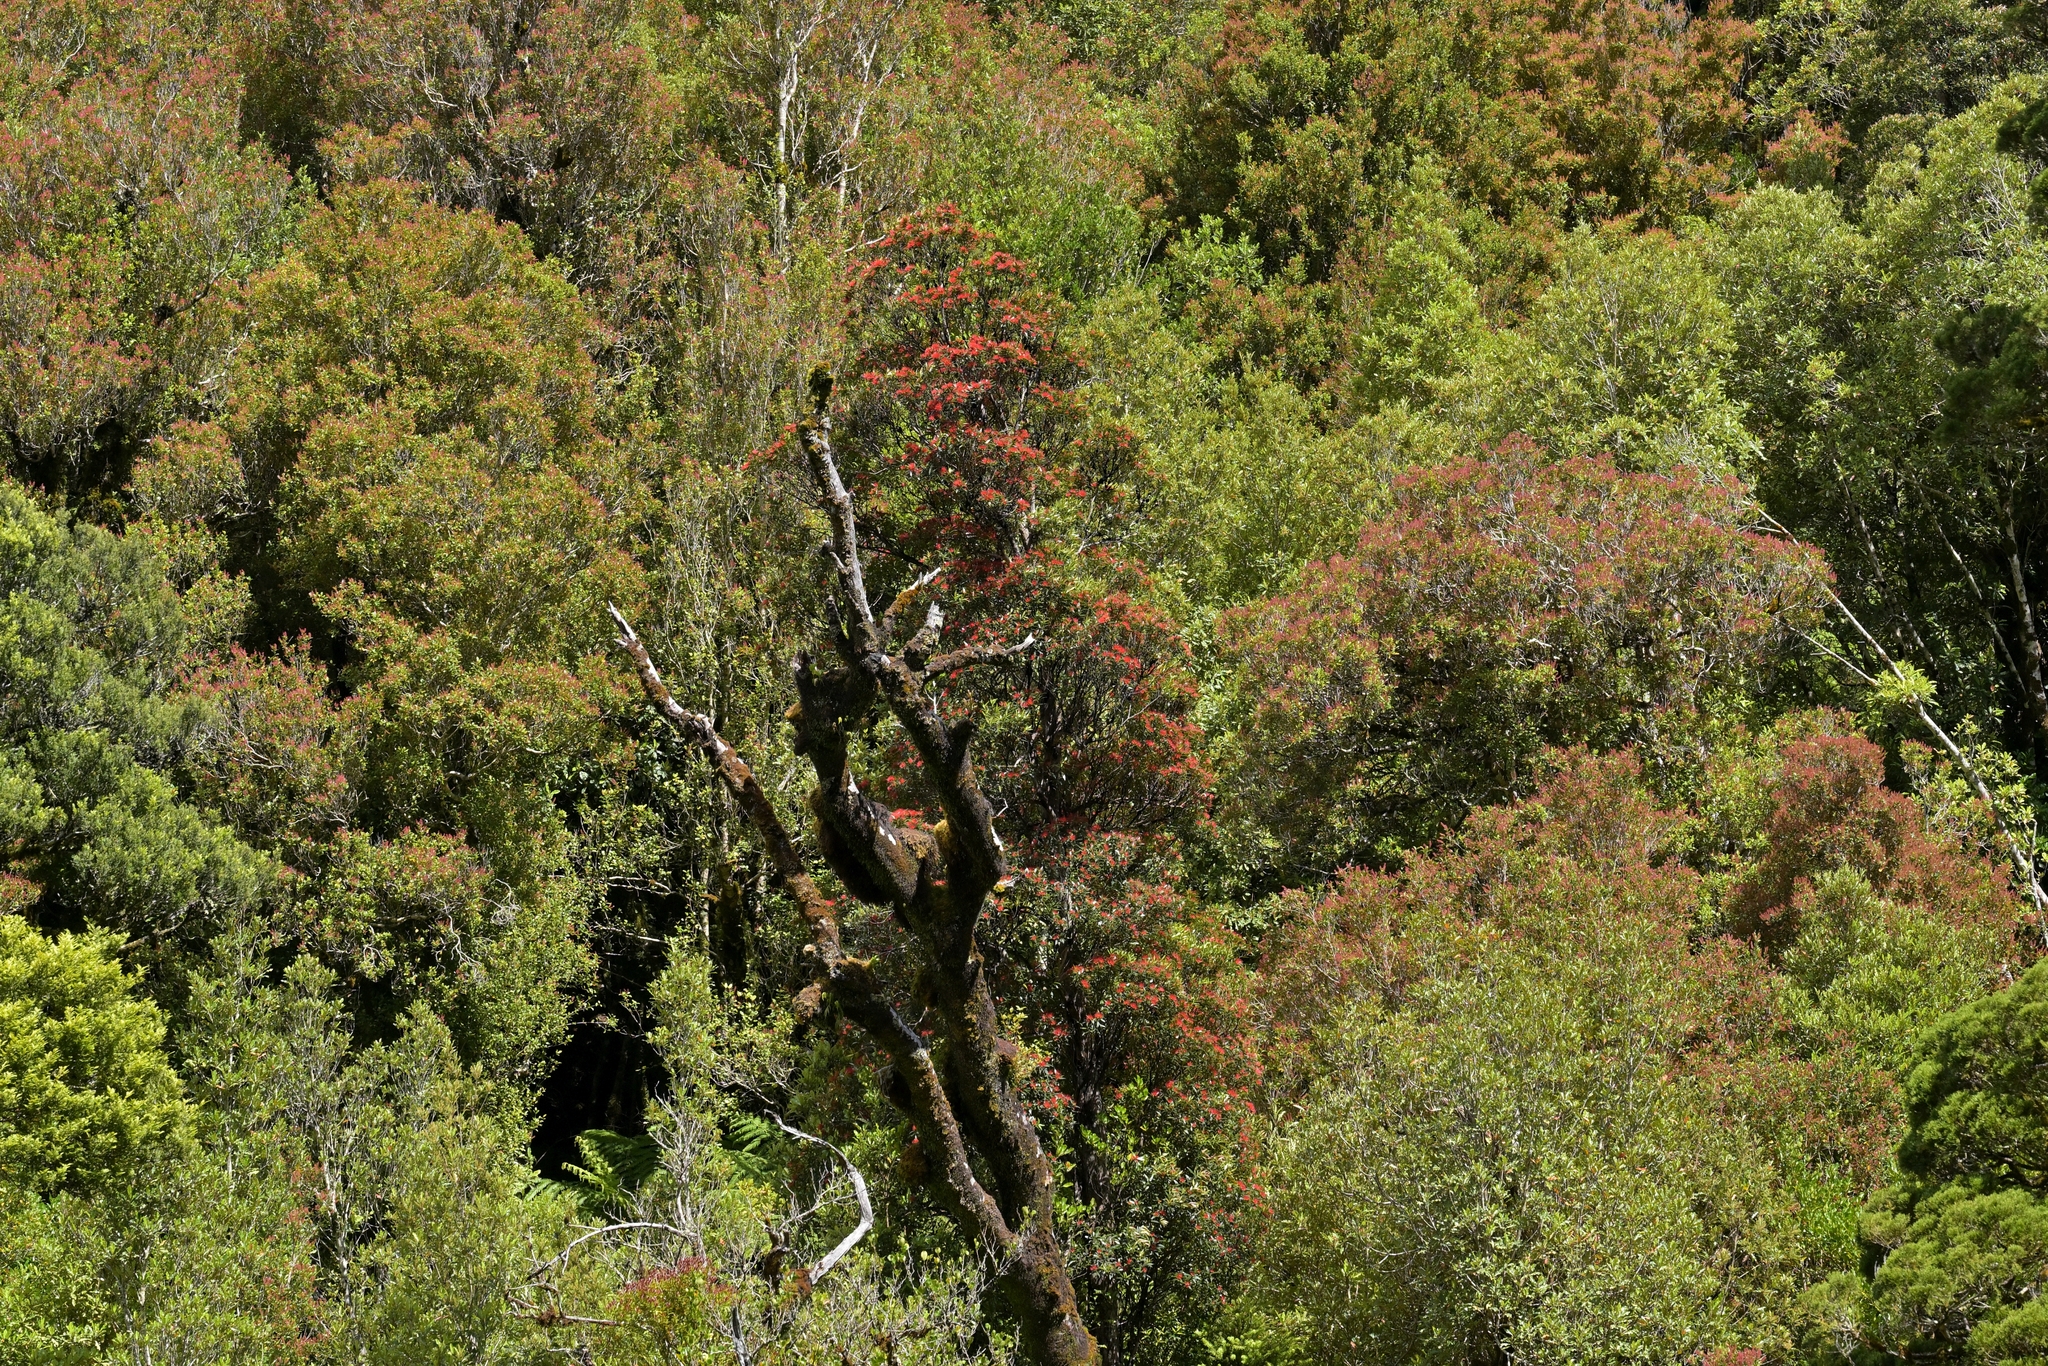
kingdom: Plantae
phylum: Tracheophyta
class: Magnoliopsida
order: Myrtales
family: Myrtaceae
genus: Metrosideros
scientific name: Metrosideros umbellata
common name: Southern rata
